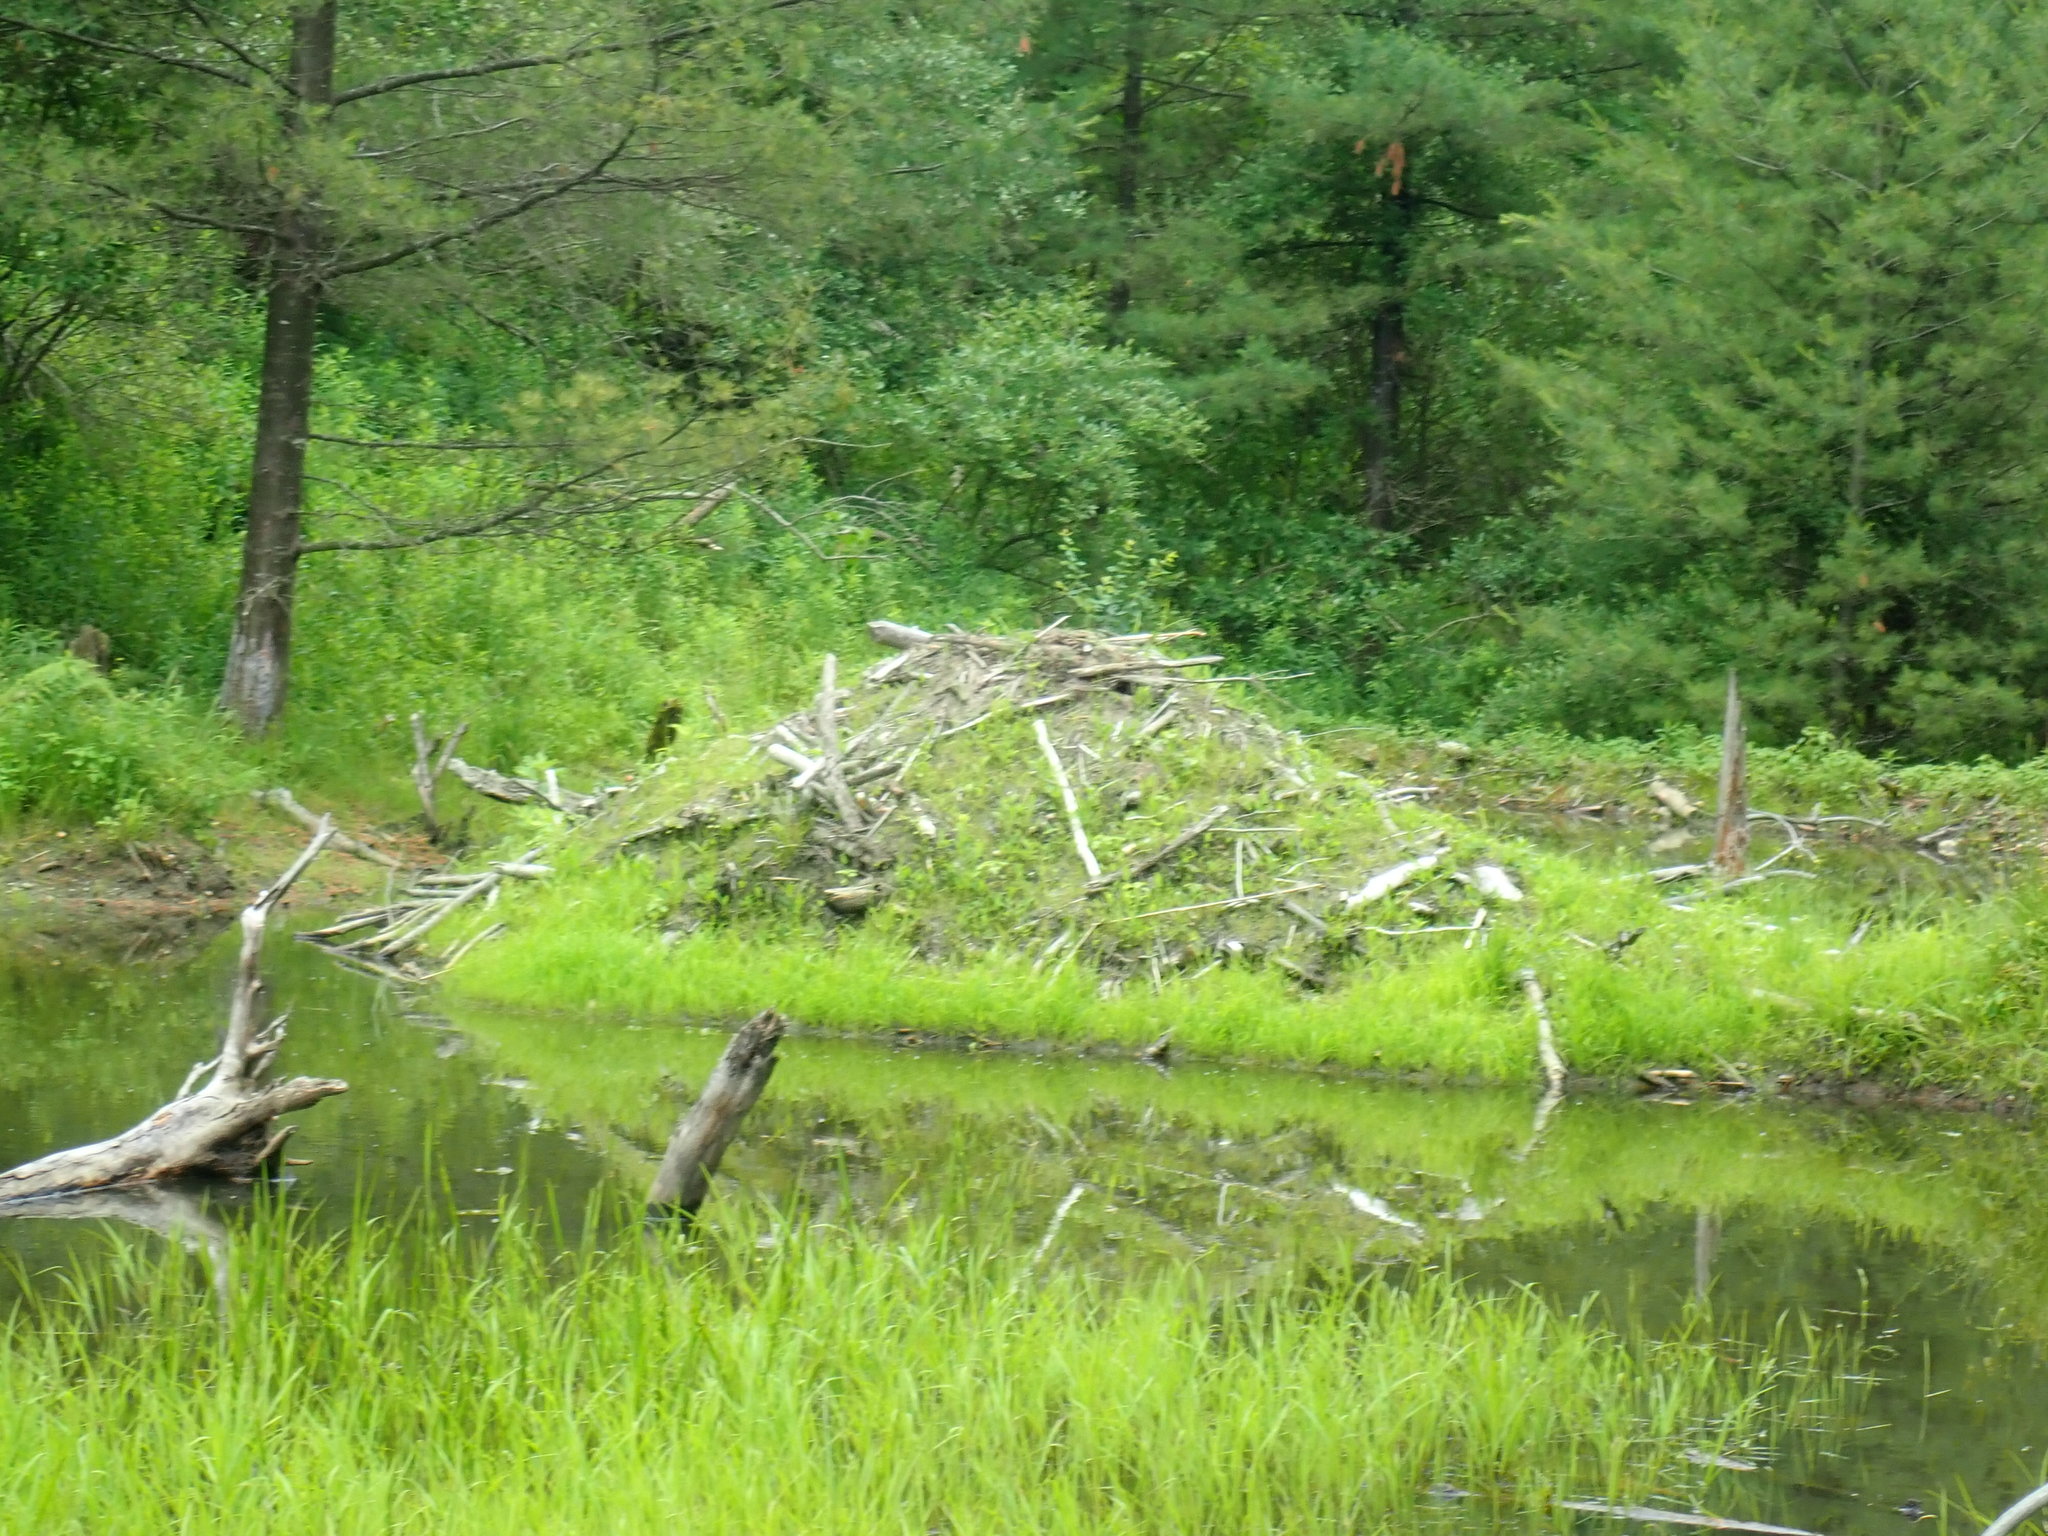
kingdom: Animalia
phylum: Chordata
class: Mammalia
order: Rodentia
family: Castoridae
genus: Castor
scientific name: Castor canadensis
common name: American beaver
